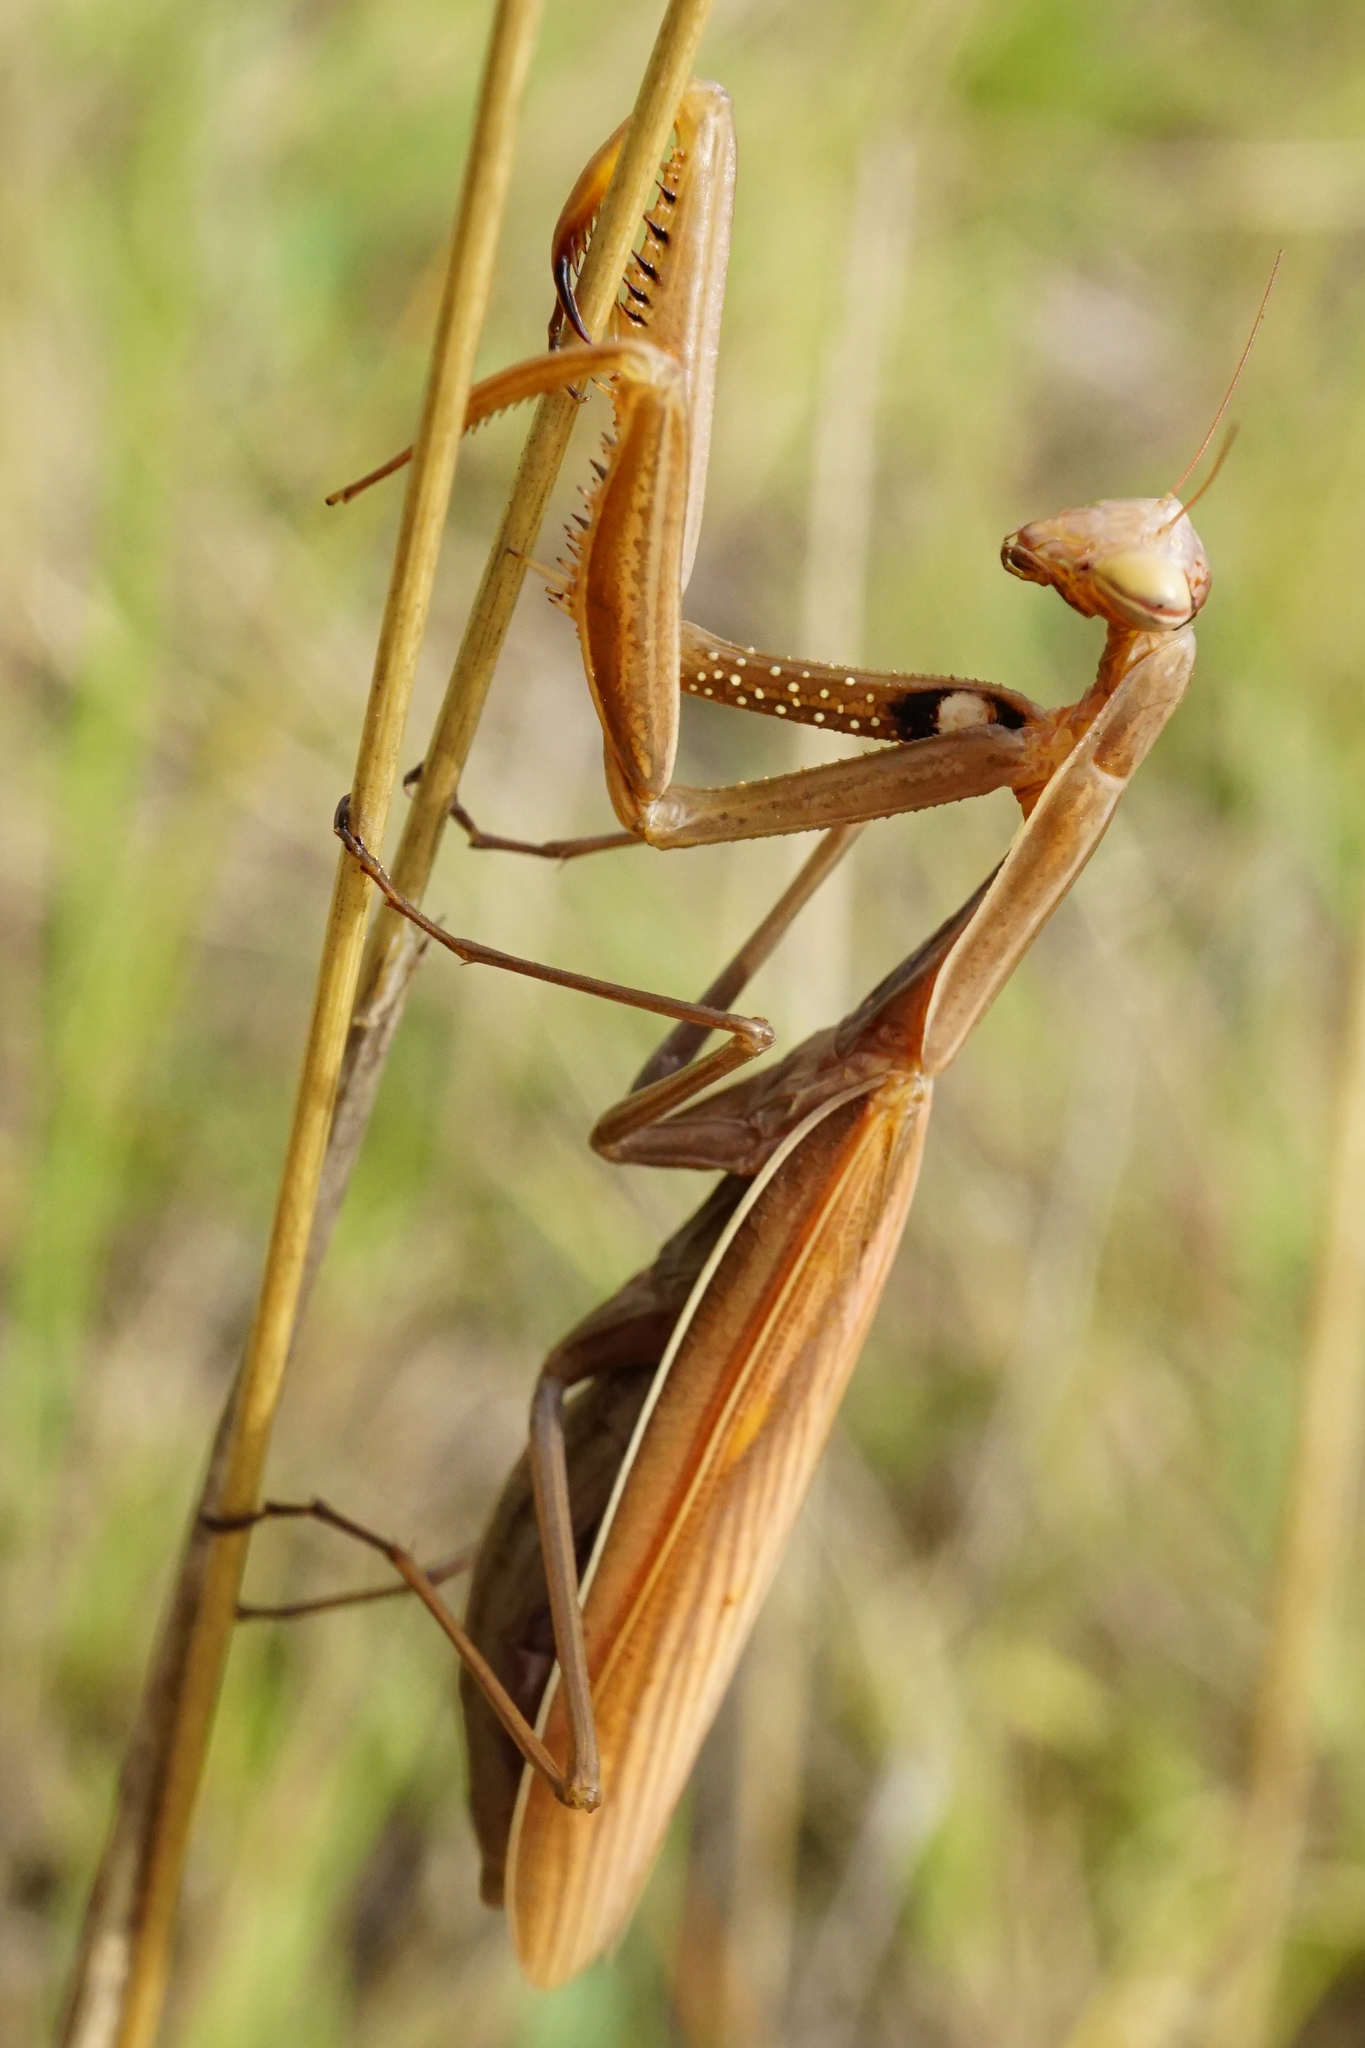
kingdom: Animalia
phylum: Arthropoda
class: Insecta
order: Mantodea
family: Mantidae
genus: Mantis
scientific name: Mantis religiosa
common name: Praying mantis
